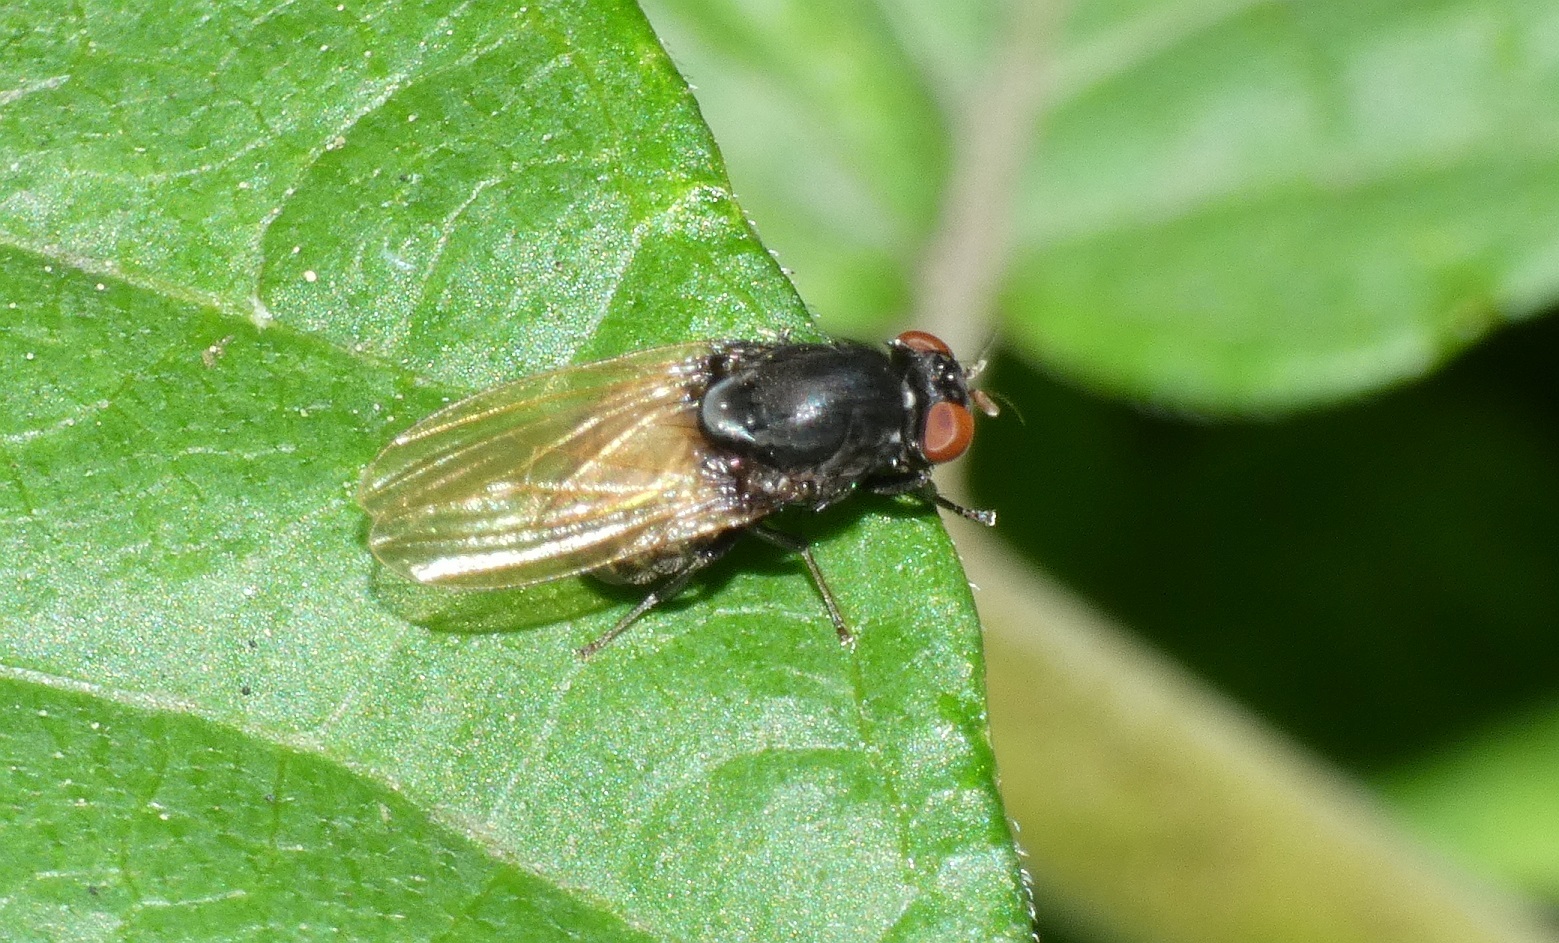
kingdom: Animalia
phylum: Arthropoda
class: Insecta
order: Diptera
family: Lauxaniidae
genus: Minettia
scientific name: Minettia longipennis
